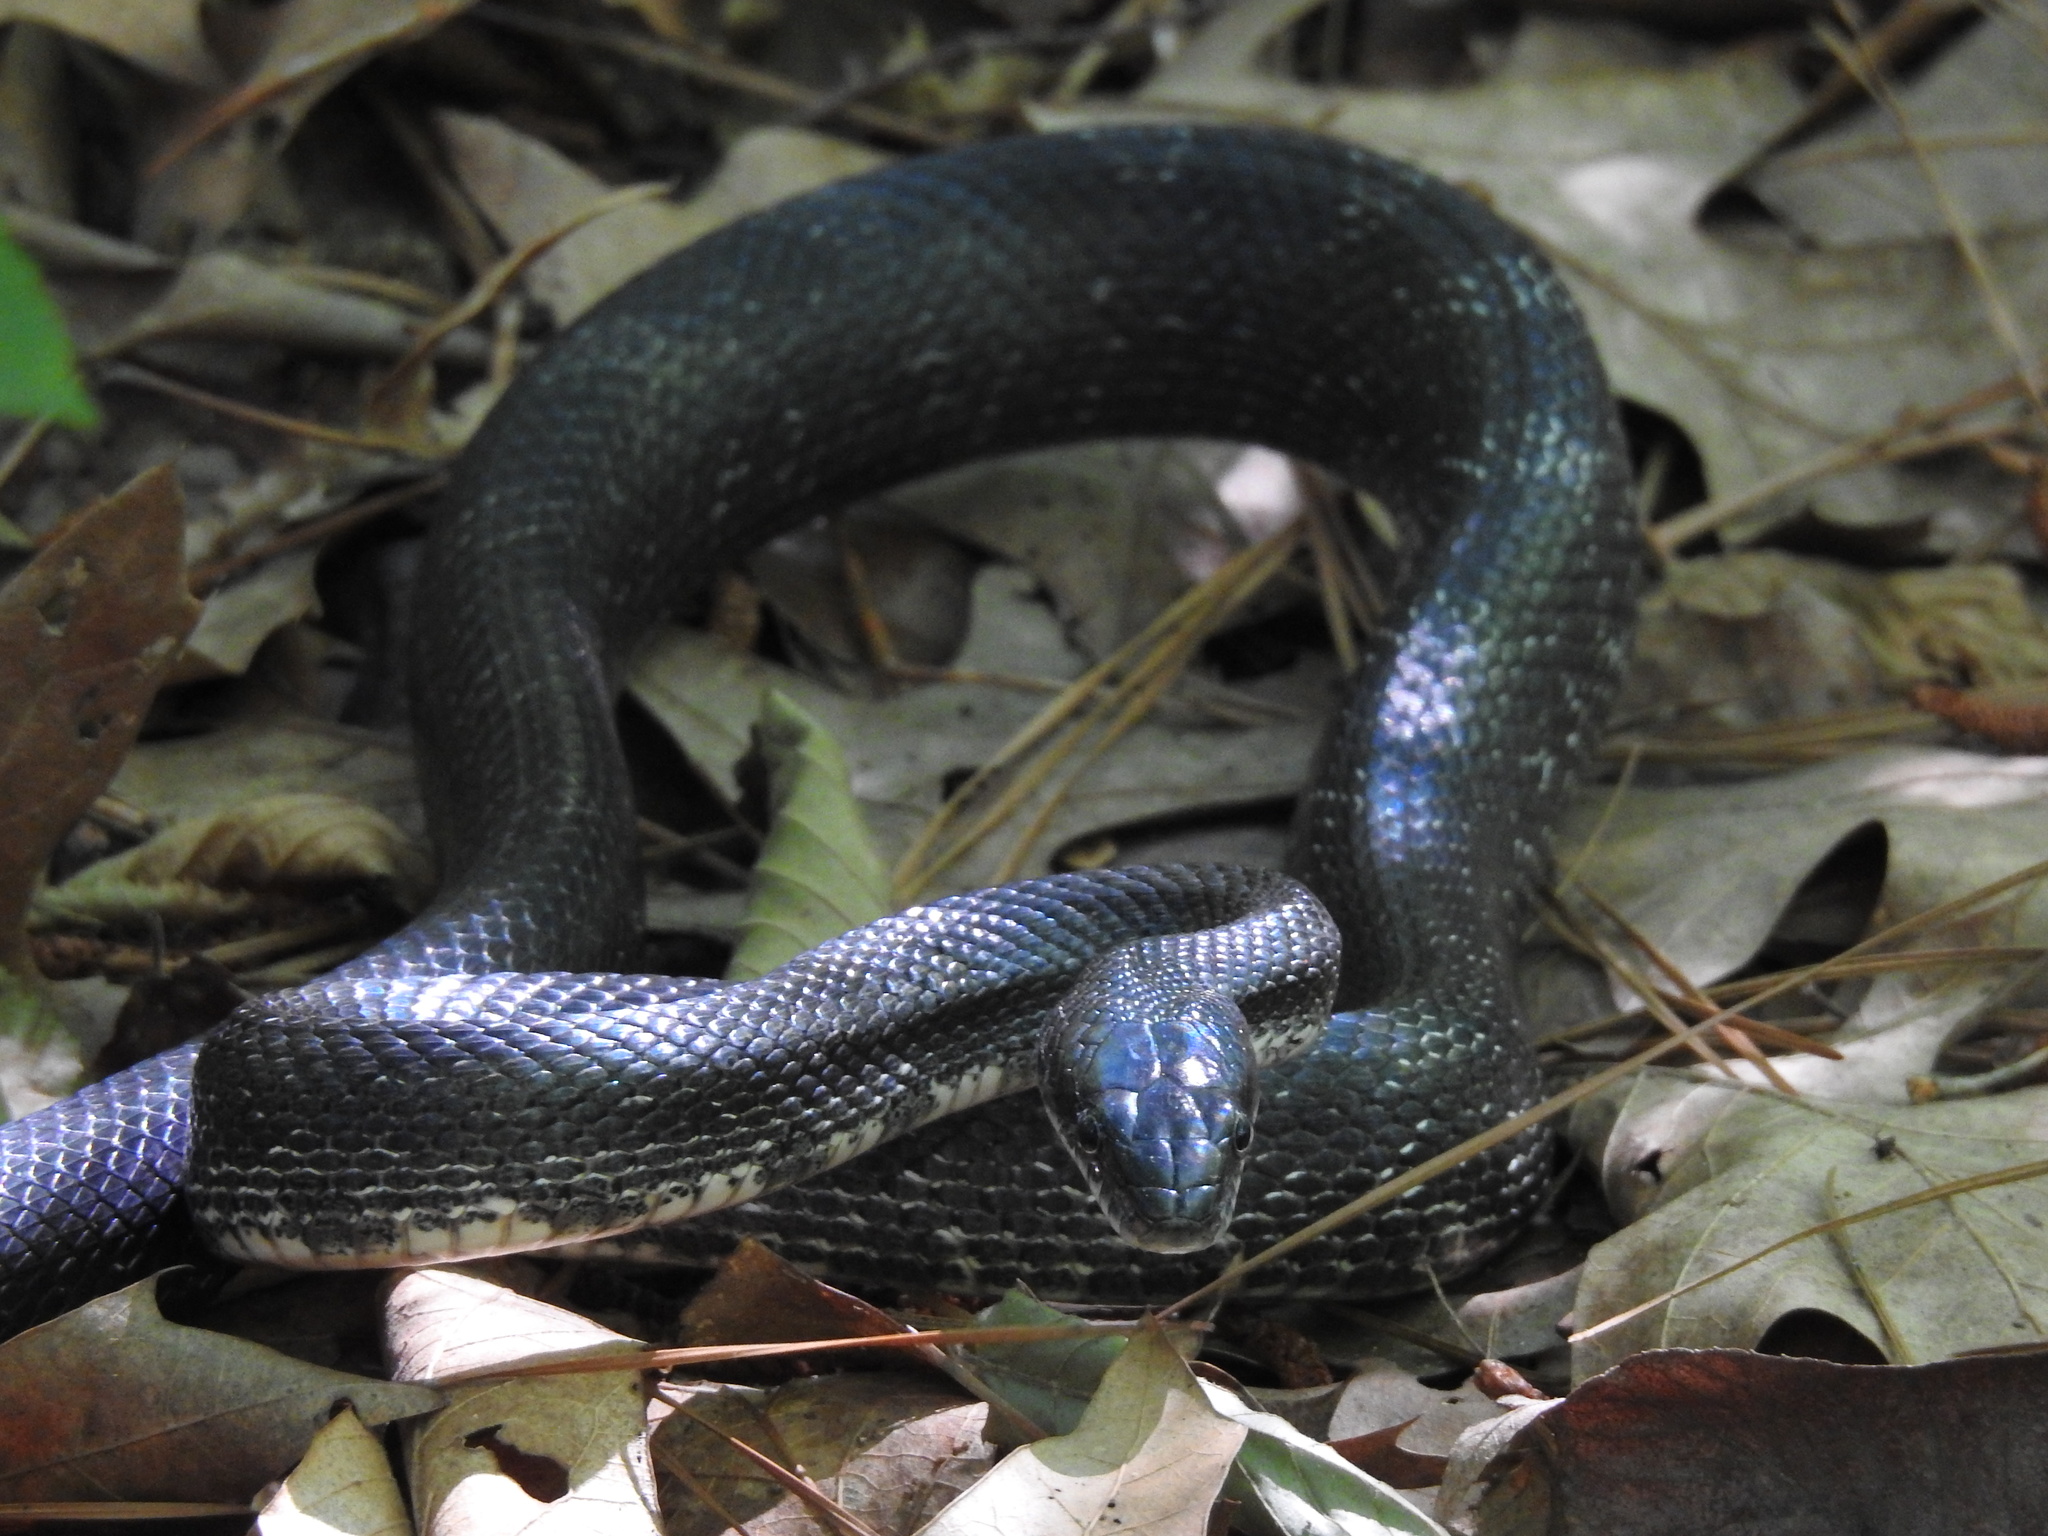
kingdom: Animalia
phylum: Chordata
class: Squamata
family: Colubridae
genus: Pantherophis
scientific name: Pantherophis alleghaniensis
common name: Eastern rat snake
